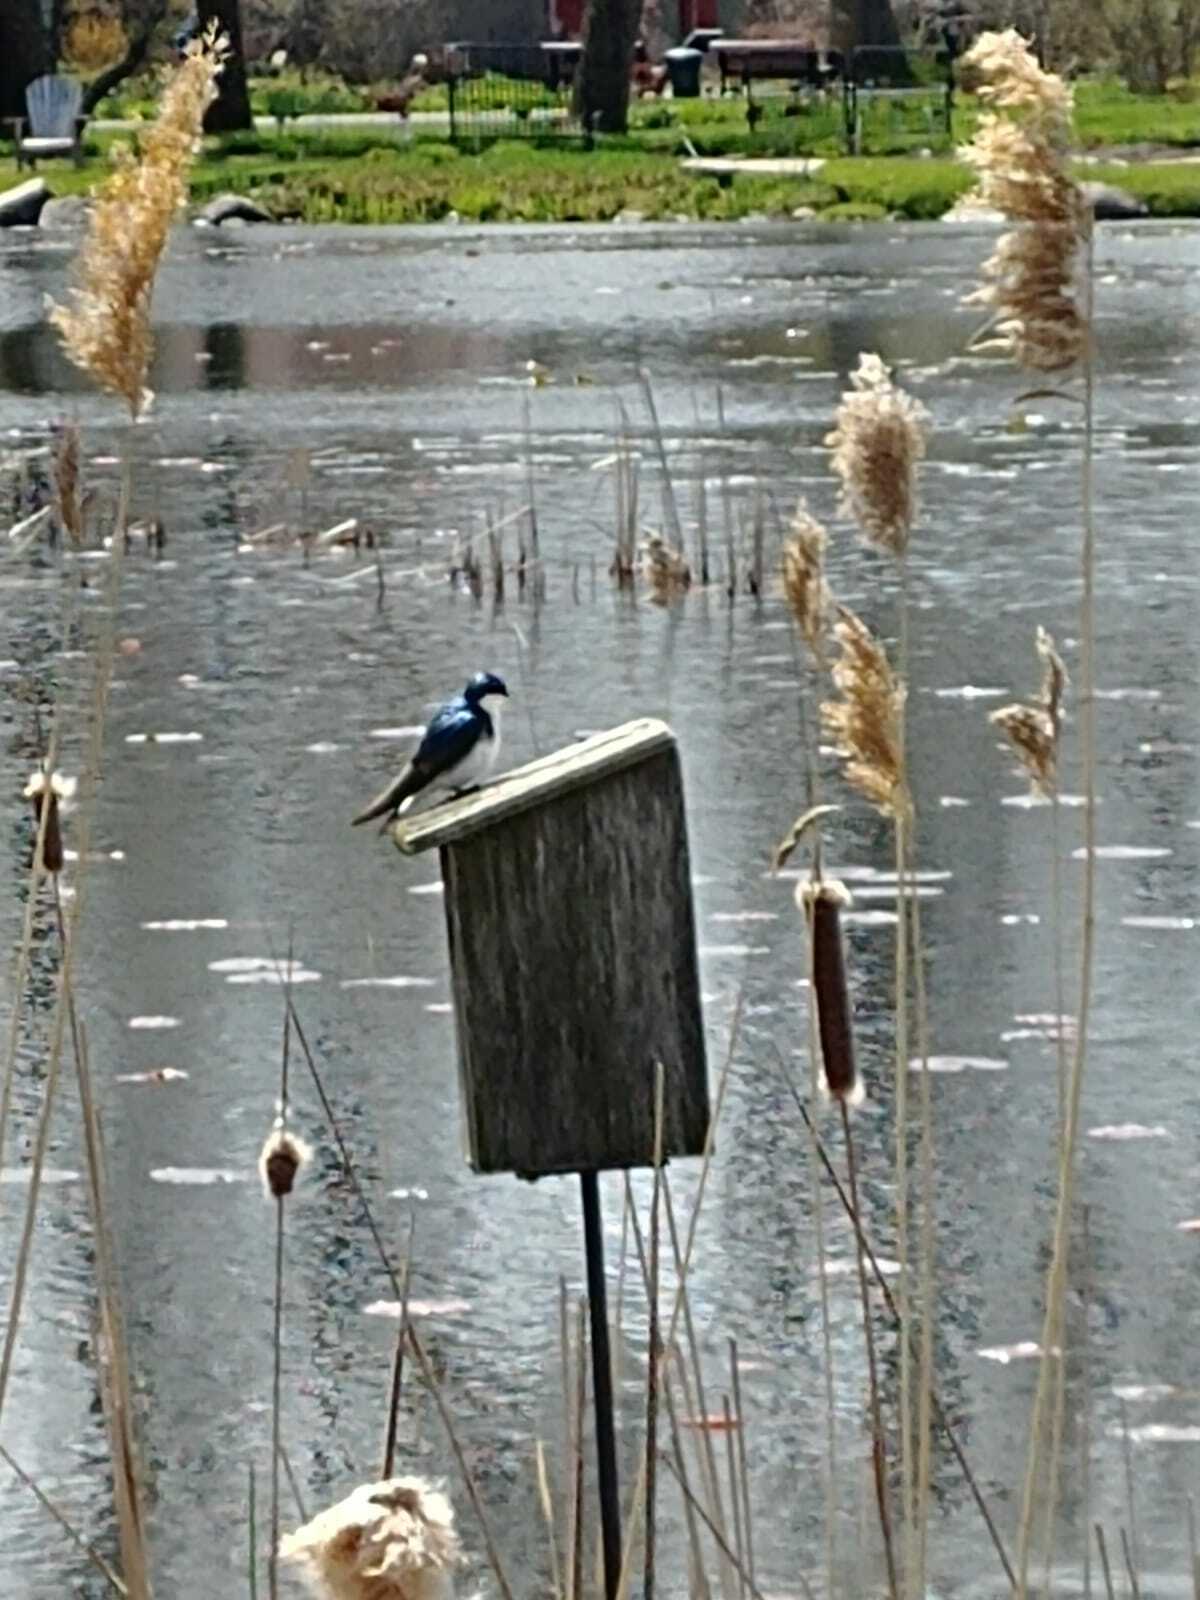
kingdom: Animalia
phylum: Chordata
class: Aves
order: Passeriformes
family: Hirundinidae
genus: Tachycineta
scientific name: Tachycineta bicolor
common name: Tree swallow
